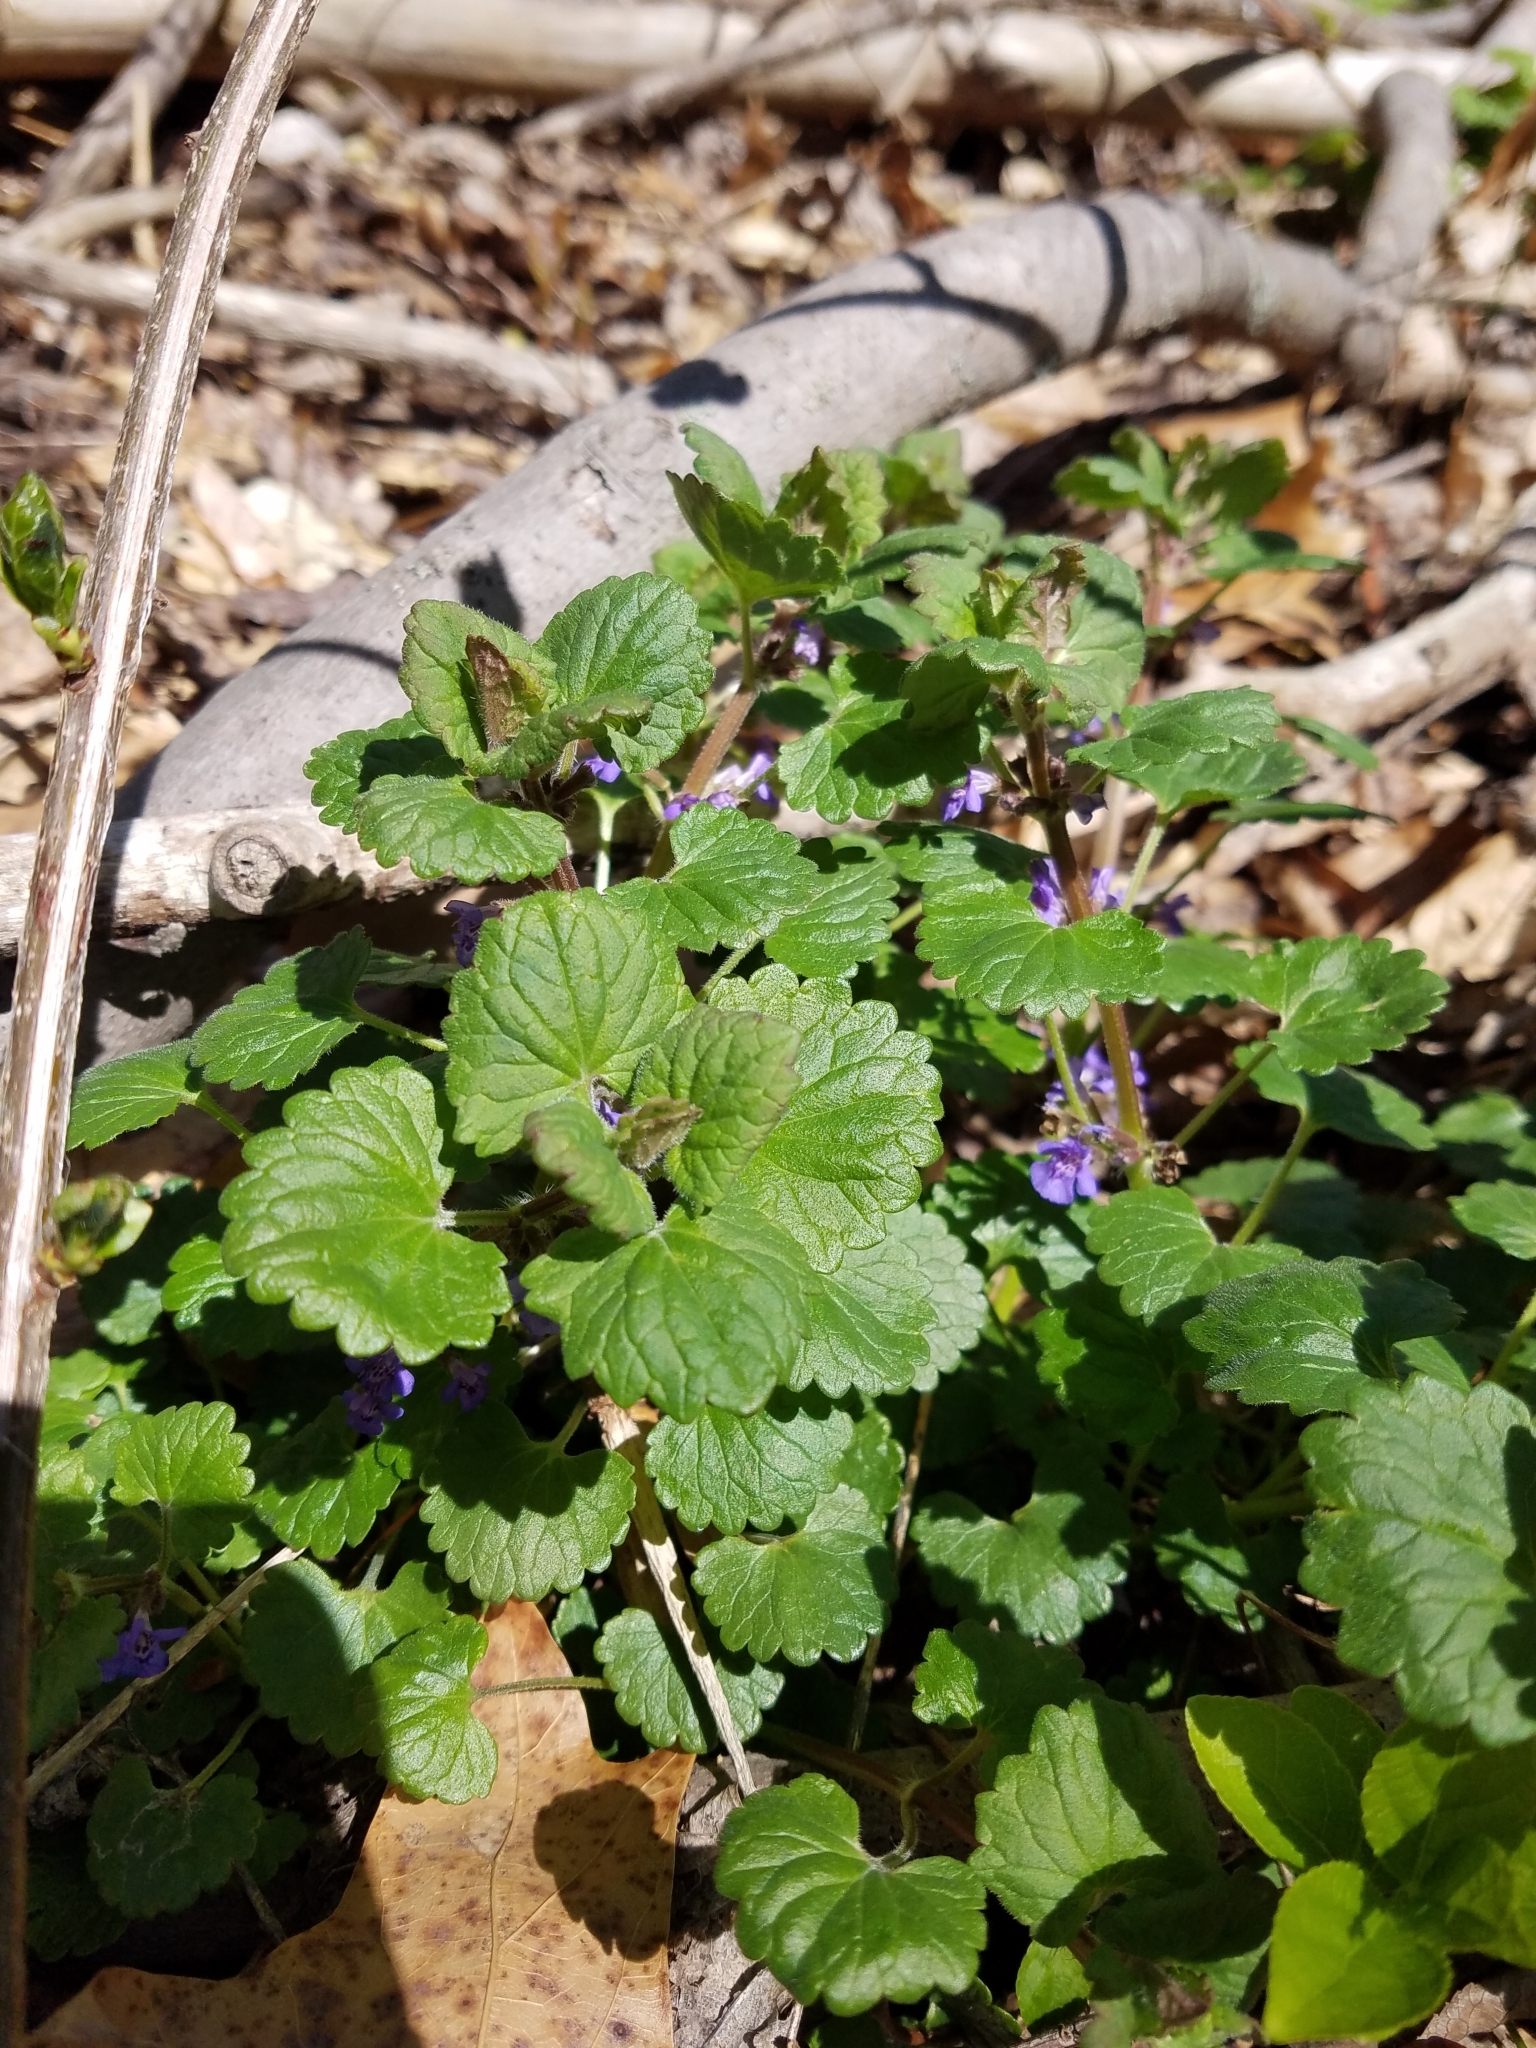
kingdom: Plantae
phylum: Tracheophyta
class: Magnoliopsida
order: Lamiales
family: Lamiaceae
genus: Glechoma
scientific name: Glechoma hederacea
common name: Ground ivy
